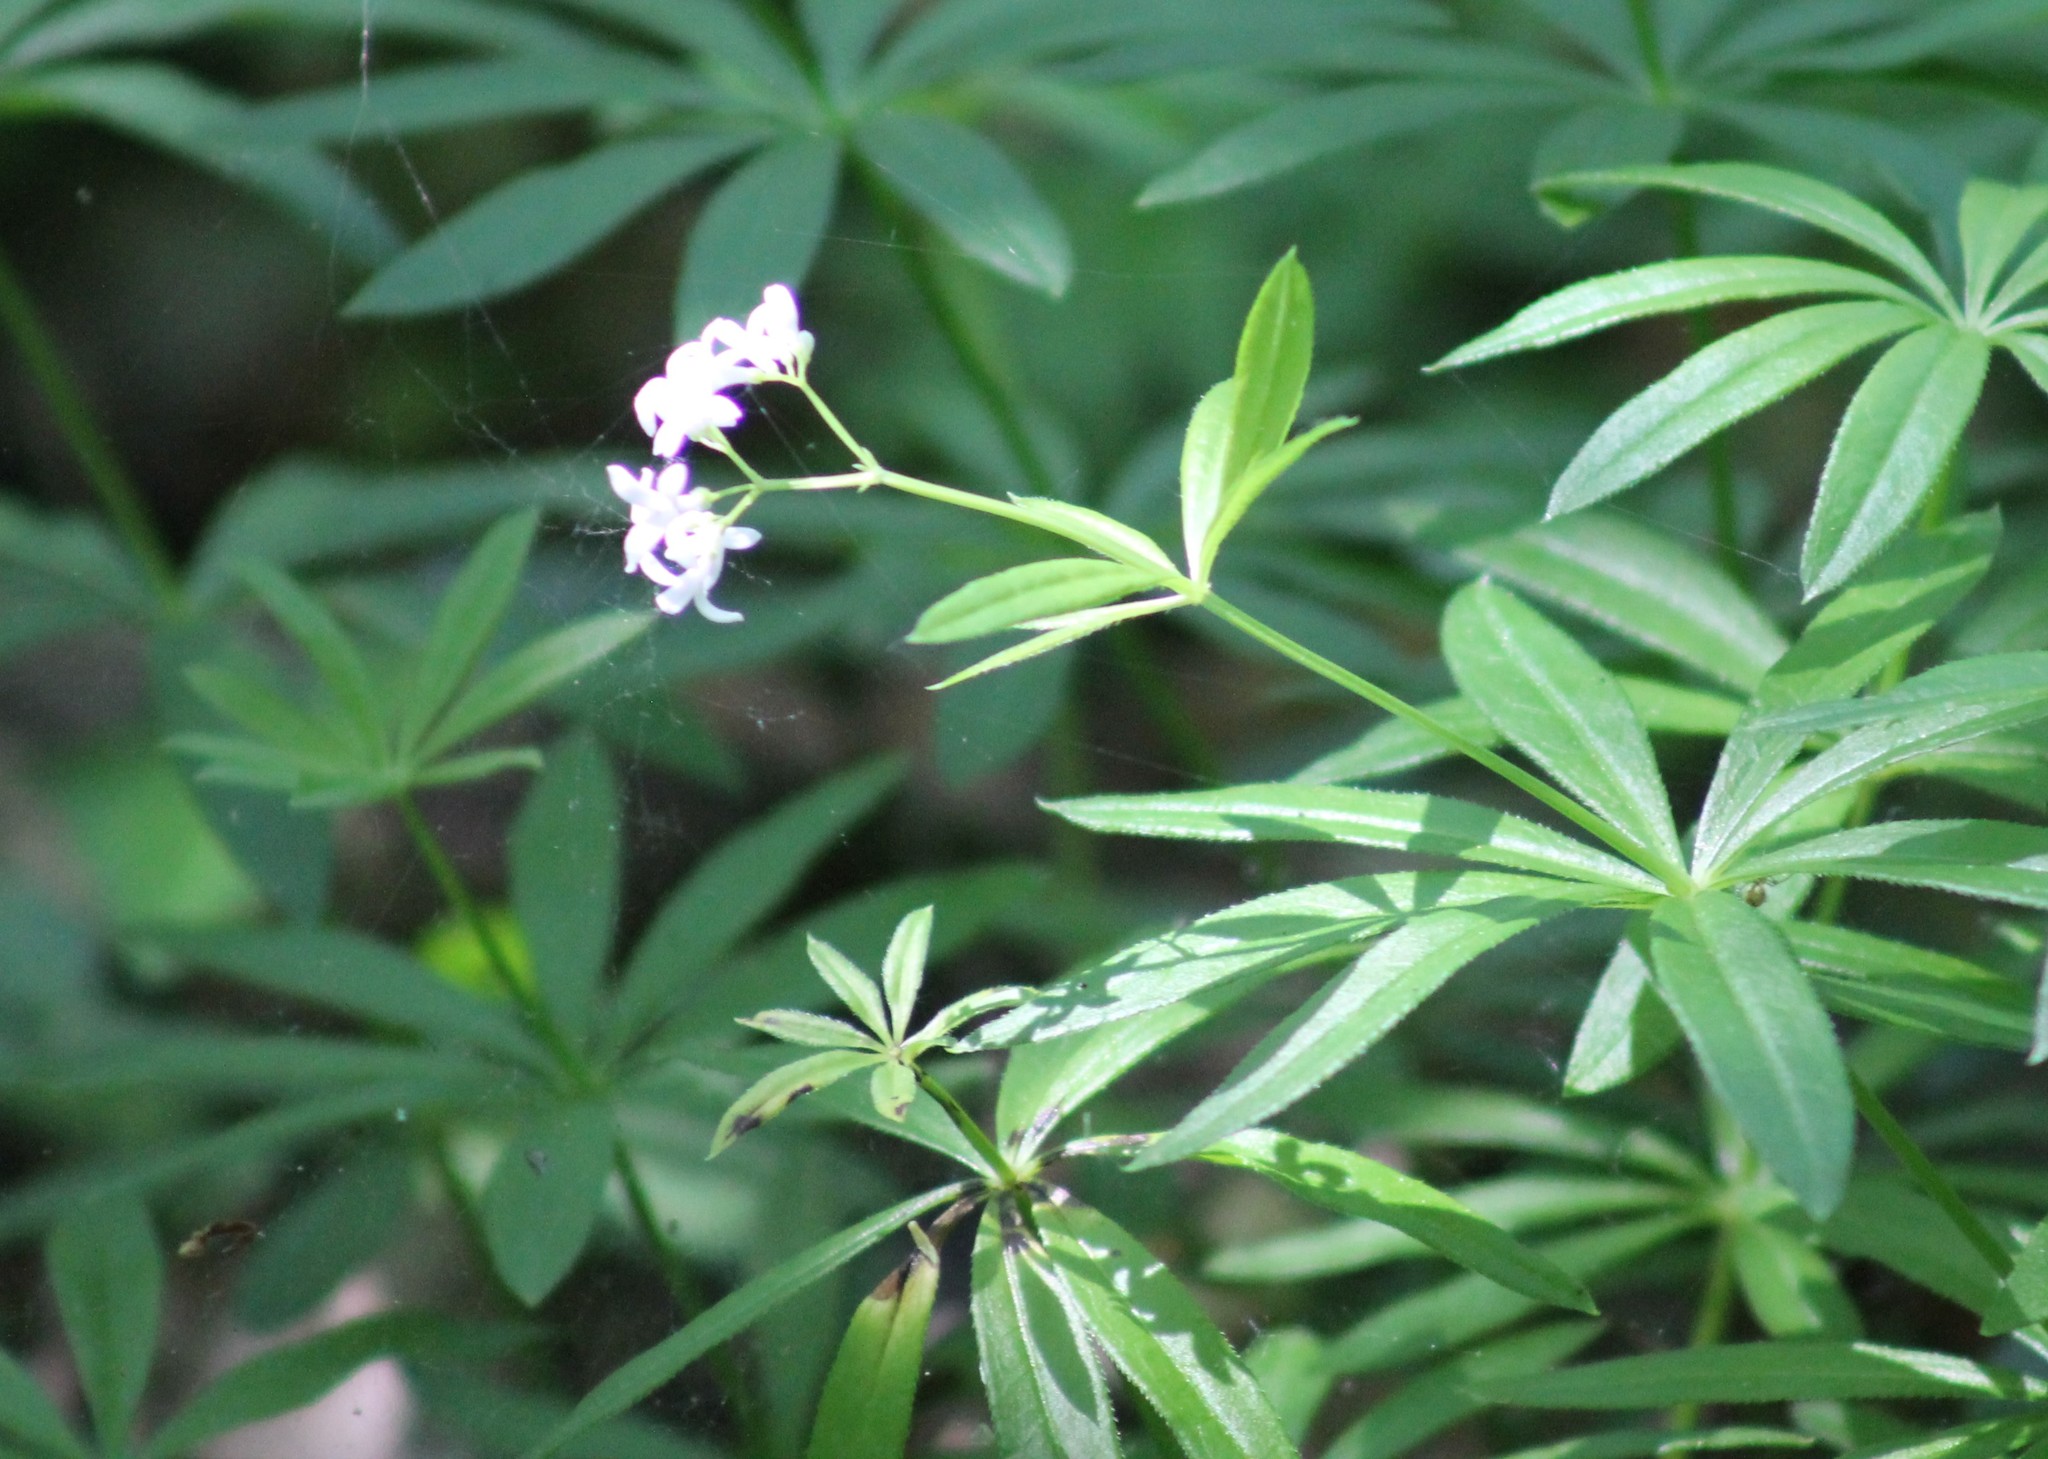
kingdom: Plantae
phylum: Tracheophyta
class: Magnoliopsida
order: Gentianales
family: Rubiaceae
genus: Galium
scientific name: Galium odoratum
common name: Sweet woodruff
